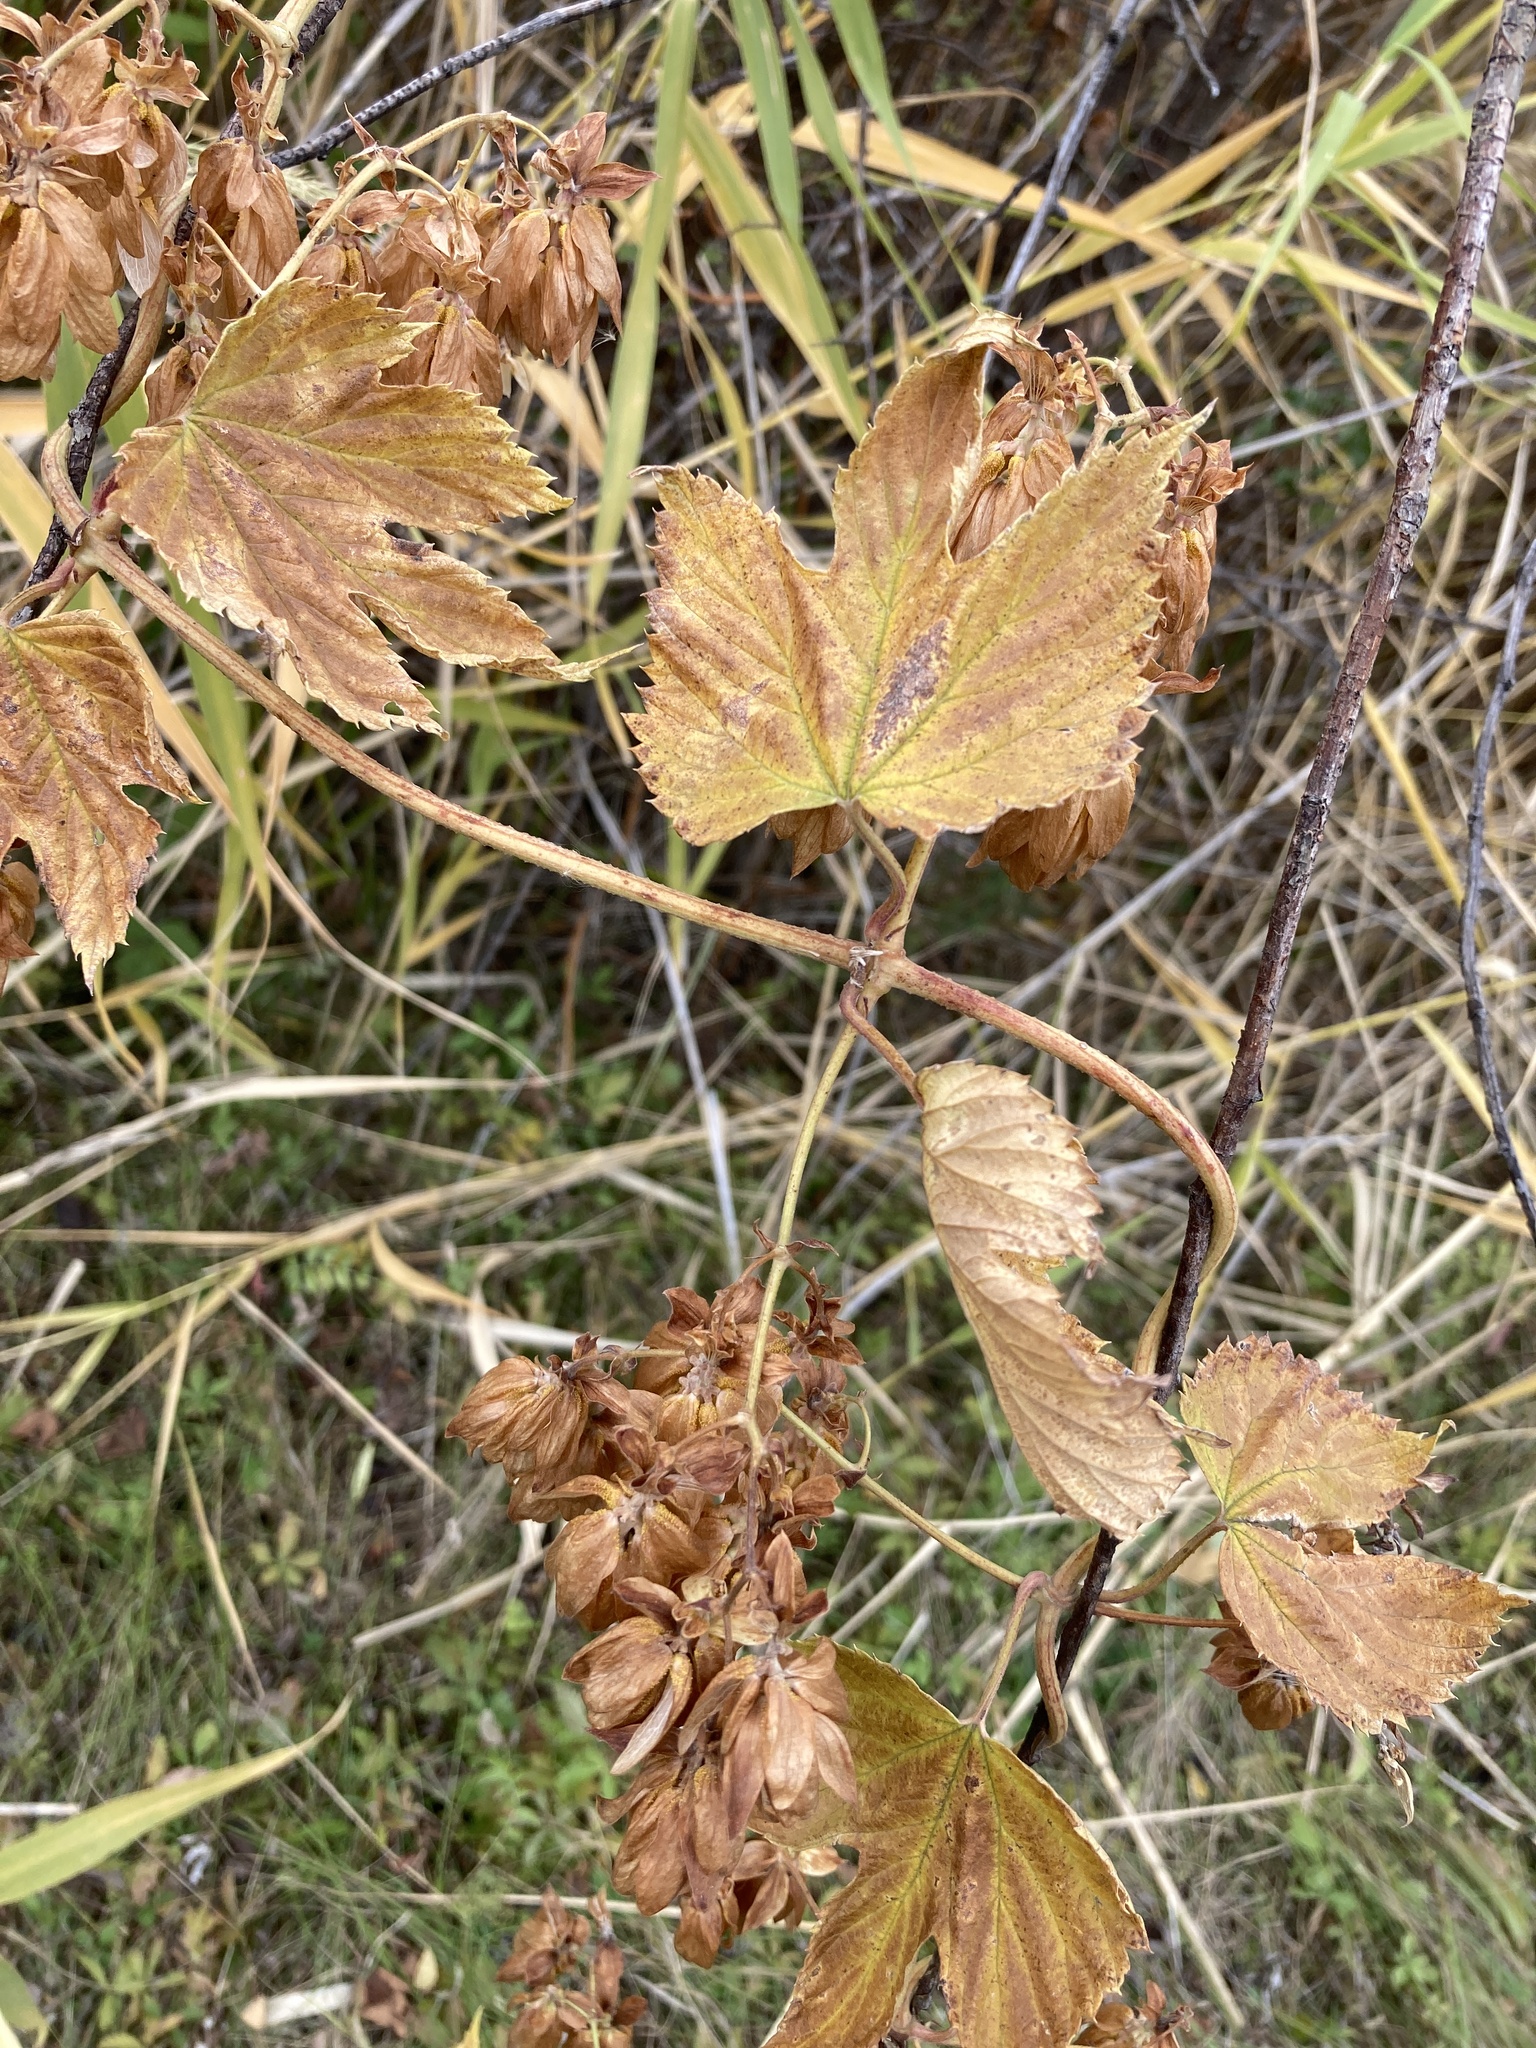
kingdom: Plantae
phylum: Tracheophyta
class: Magnoliopsida
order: Rosales
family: Cannabaceae
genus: Humulus
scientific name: Humulus lupulus
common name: Hop
